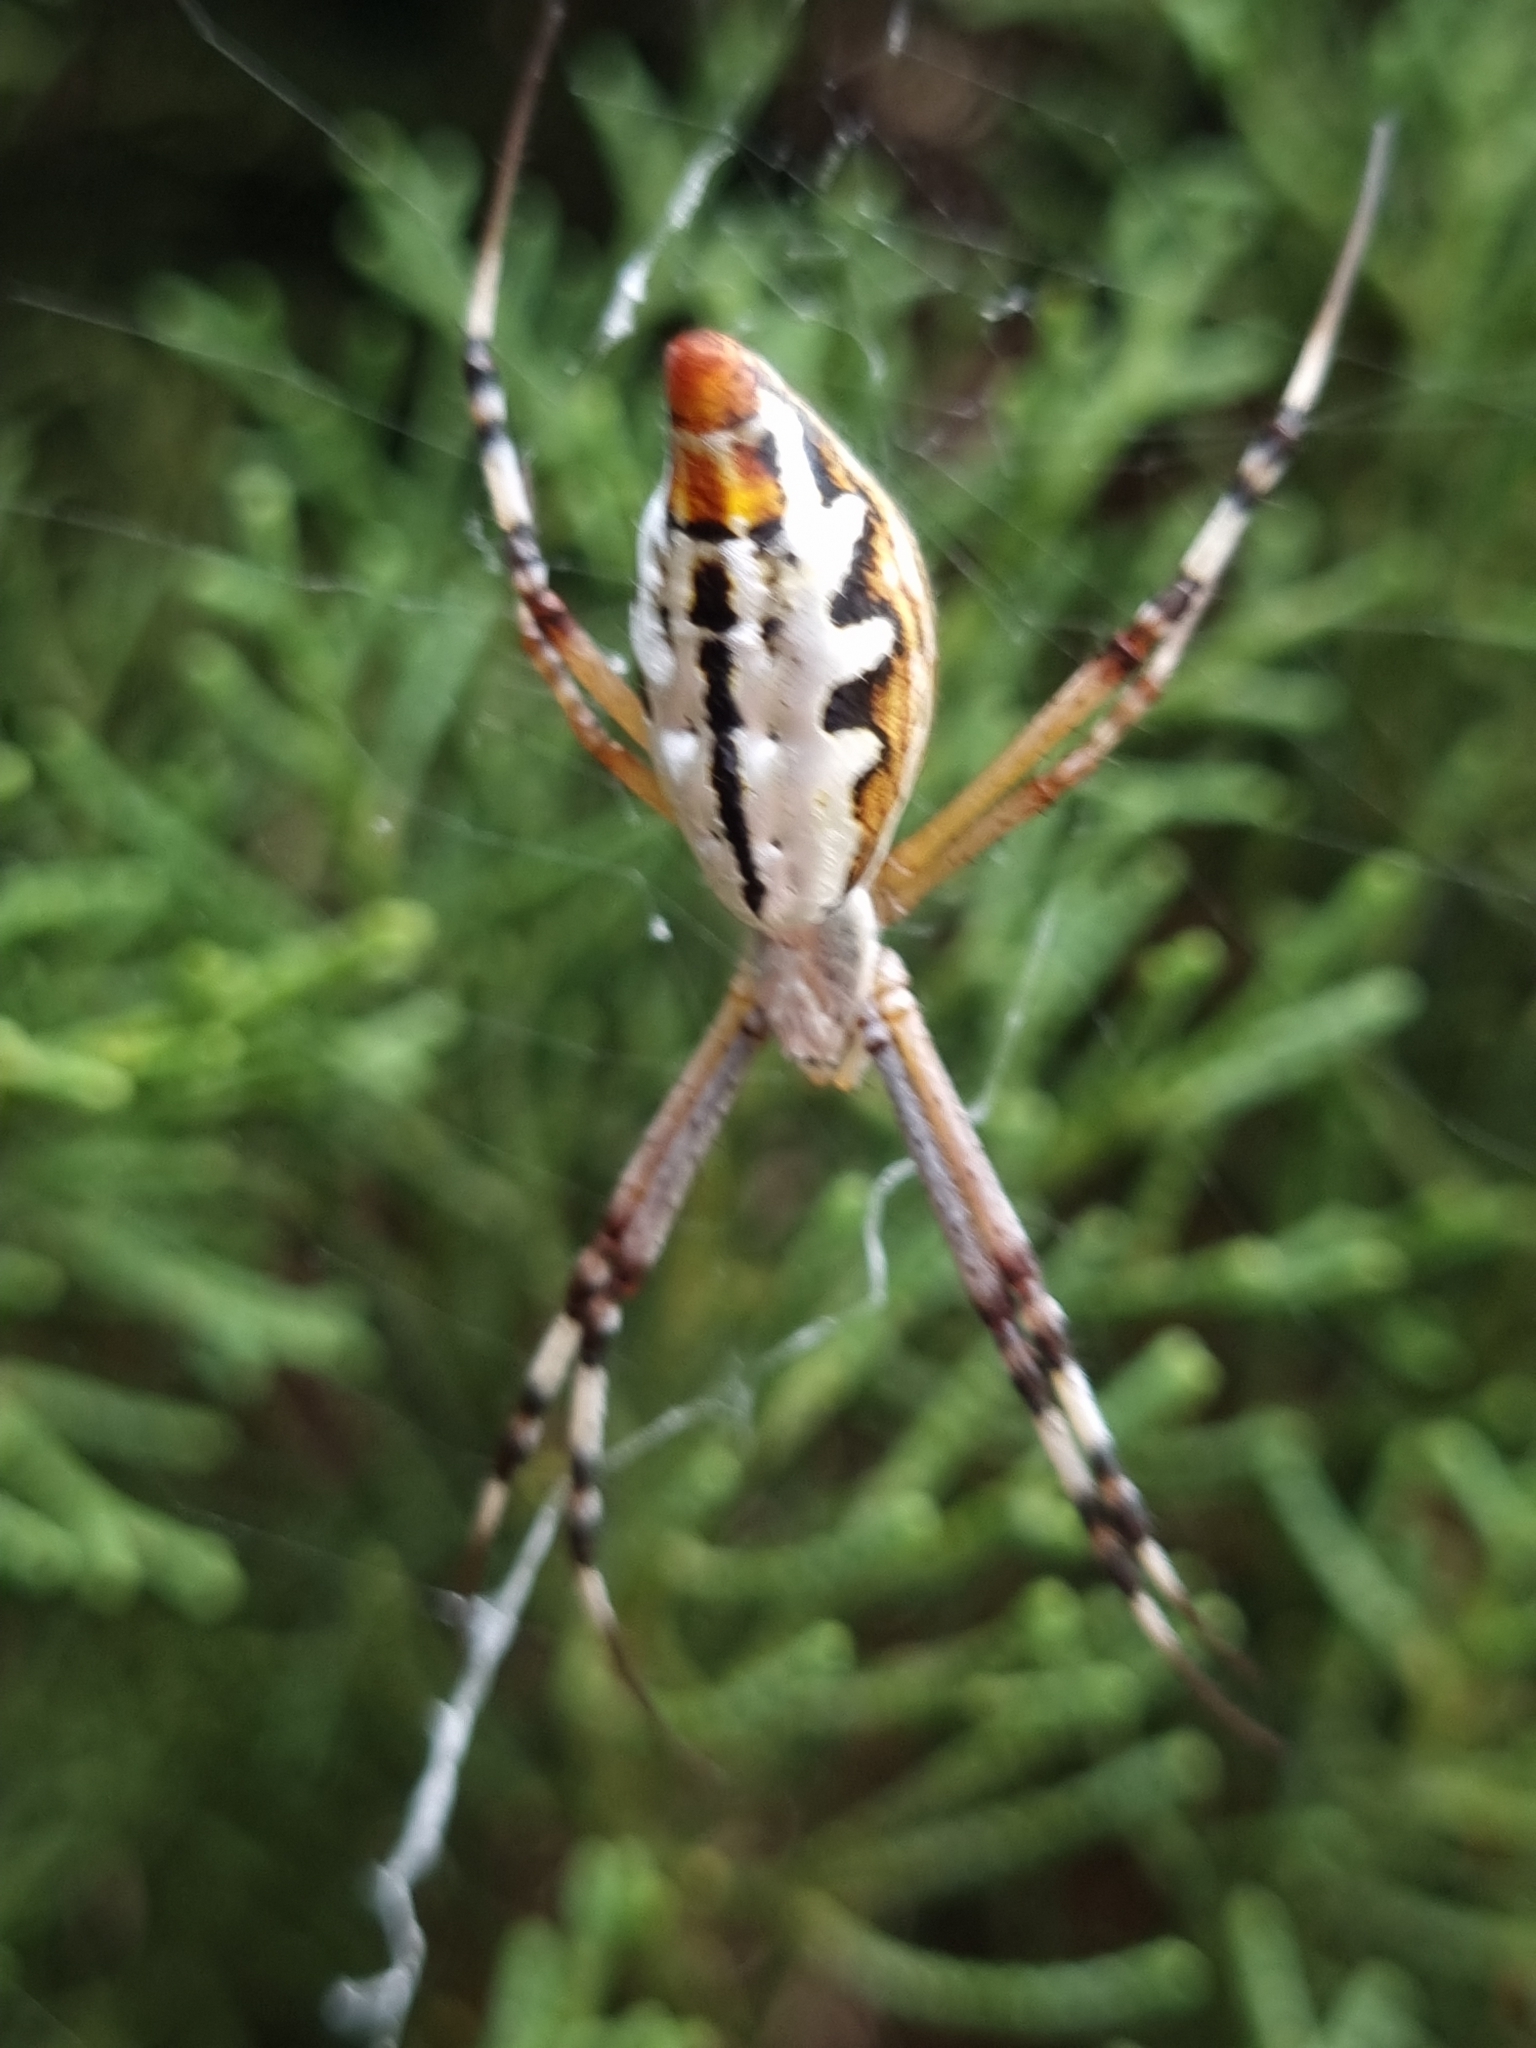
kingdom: Animalia
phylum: Arthropoda
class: Arachnida
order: Araneae
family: Araneidae
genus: Argiope
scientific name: Argiope protensa
